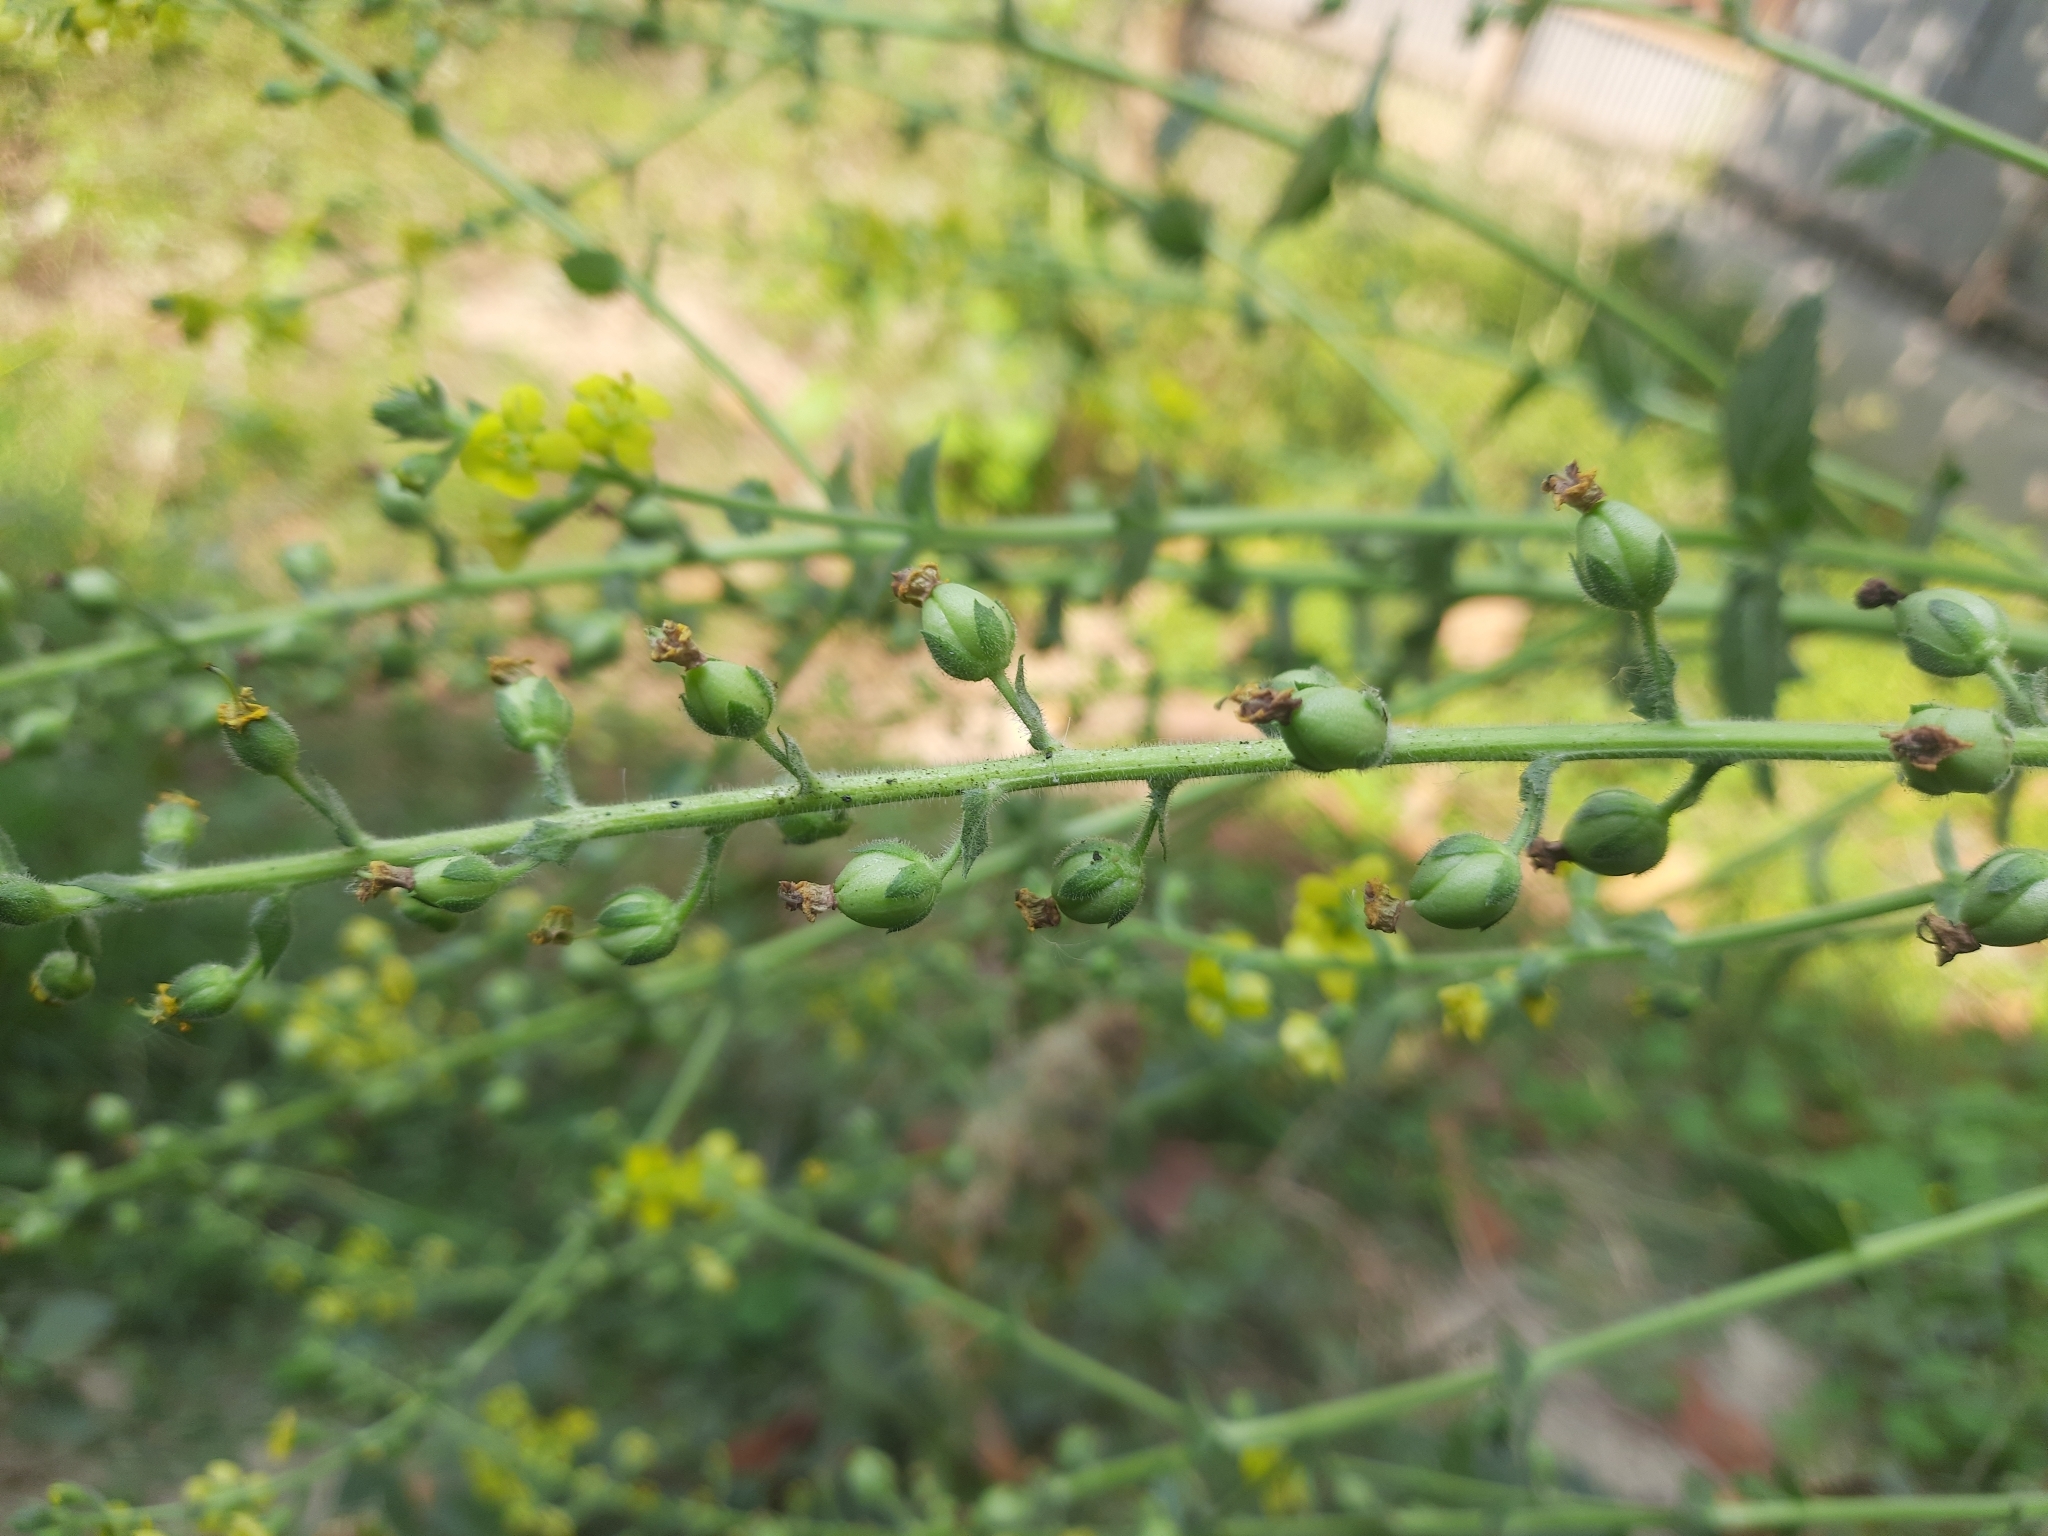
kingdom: Plantae
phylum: Tracheophyta
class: Magnoliopsida
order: Lamiales
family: Scrophulariaceae
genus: Verbascum
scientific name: Verbascum coromandelianum
